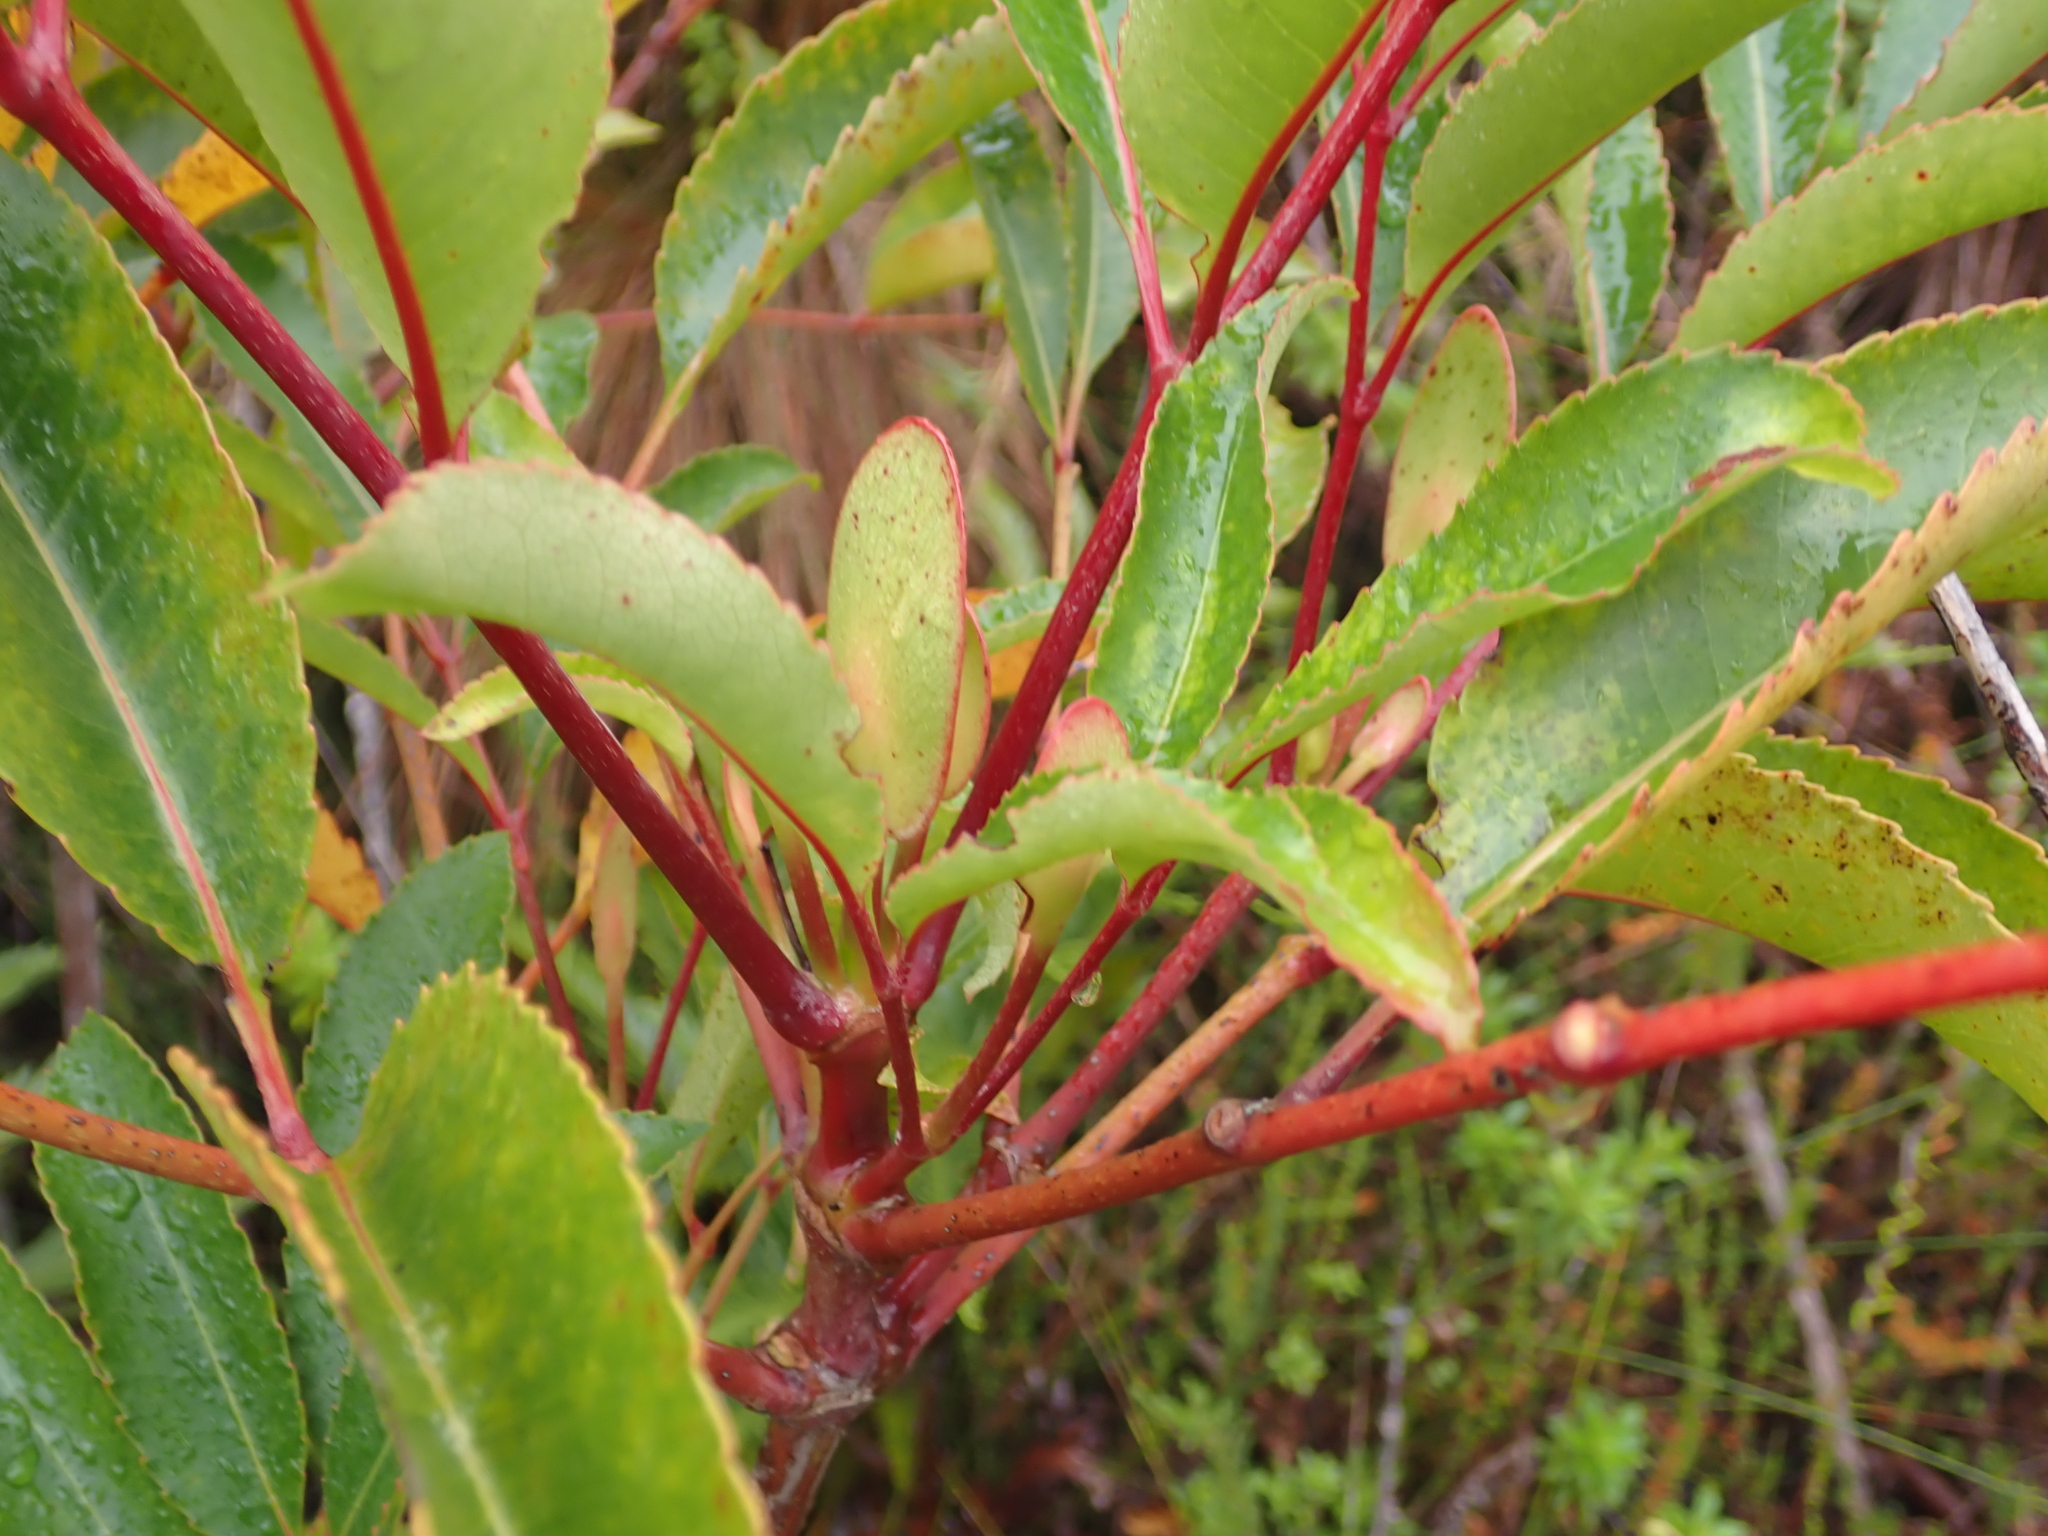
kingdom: Plantae
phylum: Tracheophyta
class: Magnoliopsida
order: Oxalidales
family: Cunoniaceae
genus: Cunonia
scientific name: Cunonia capensis
